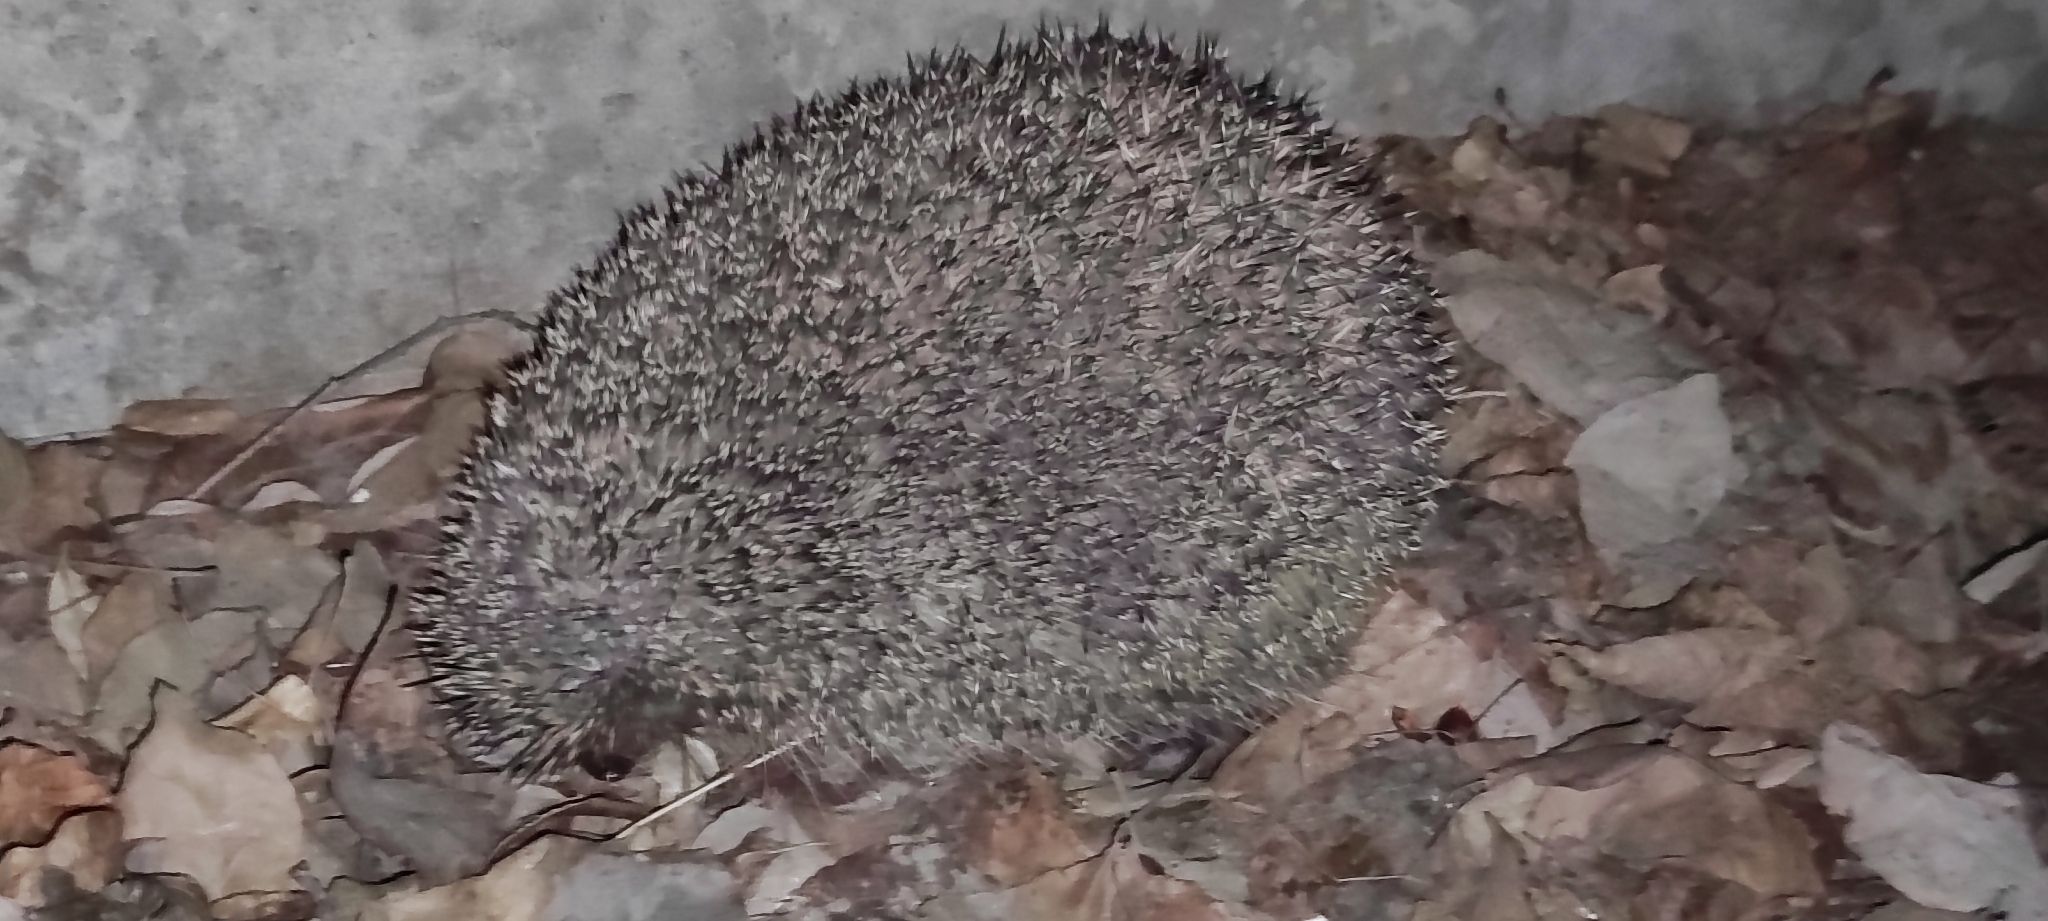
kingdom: Animalia
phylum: Chordata
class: Mammalia
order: Erinaceomorpha
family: Erinaceidae
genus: Erinaceus
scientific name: Erinaceus roumanicus
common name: Northern white-breasted hedgehog
